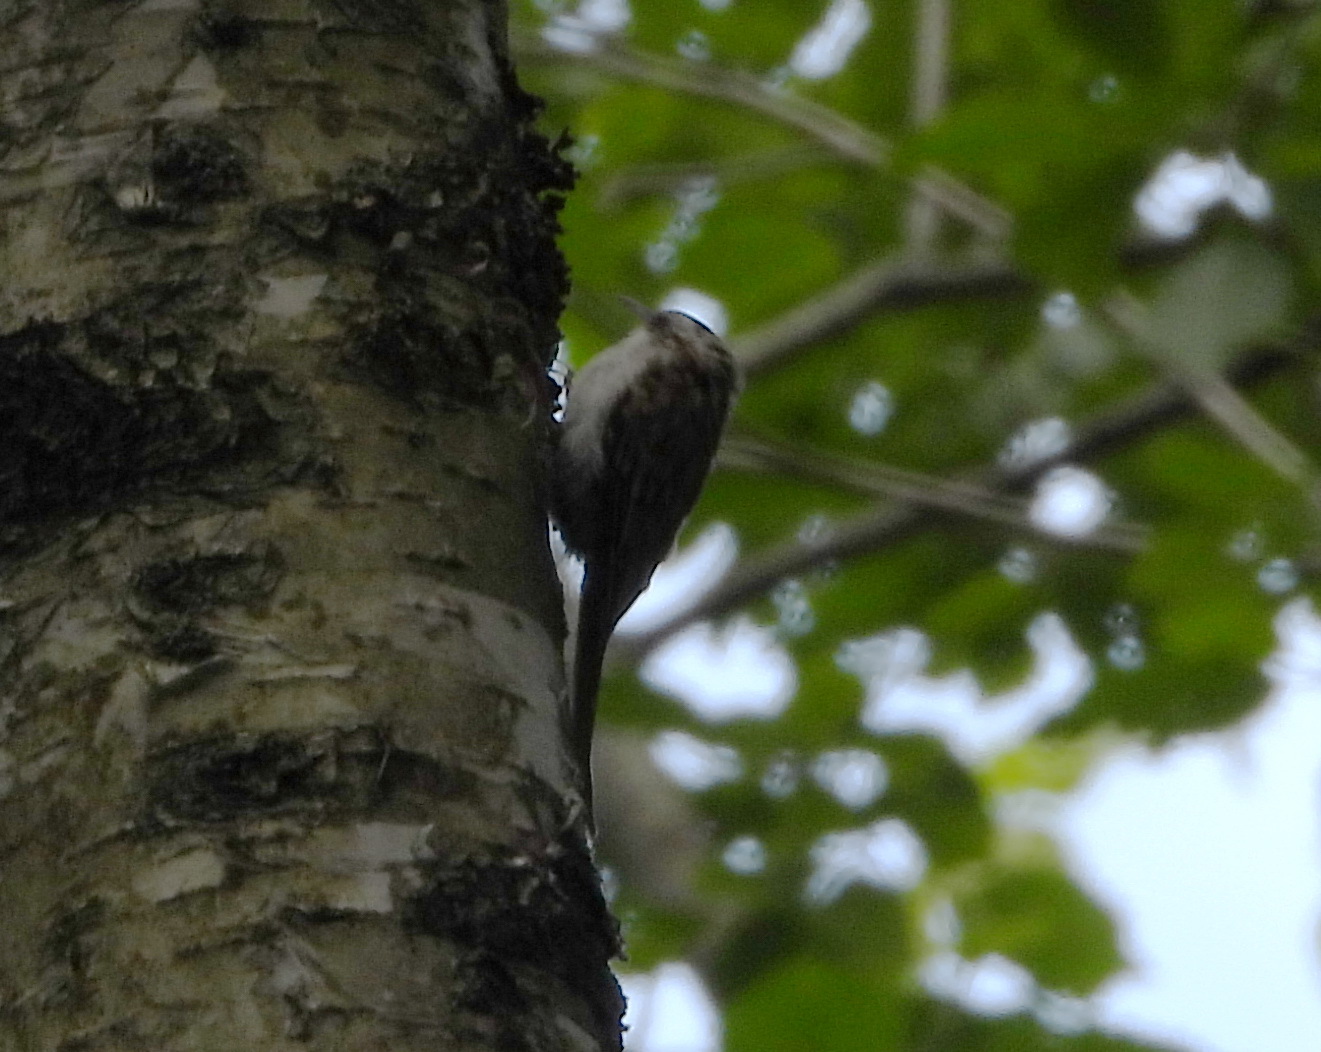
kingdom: Animalia
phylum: Chordata
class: Aves
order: Passeriformes
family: Certhiidae
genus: Certhia
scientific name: Certhia familiaris
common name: Eurasian treecreeper
